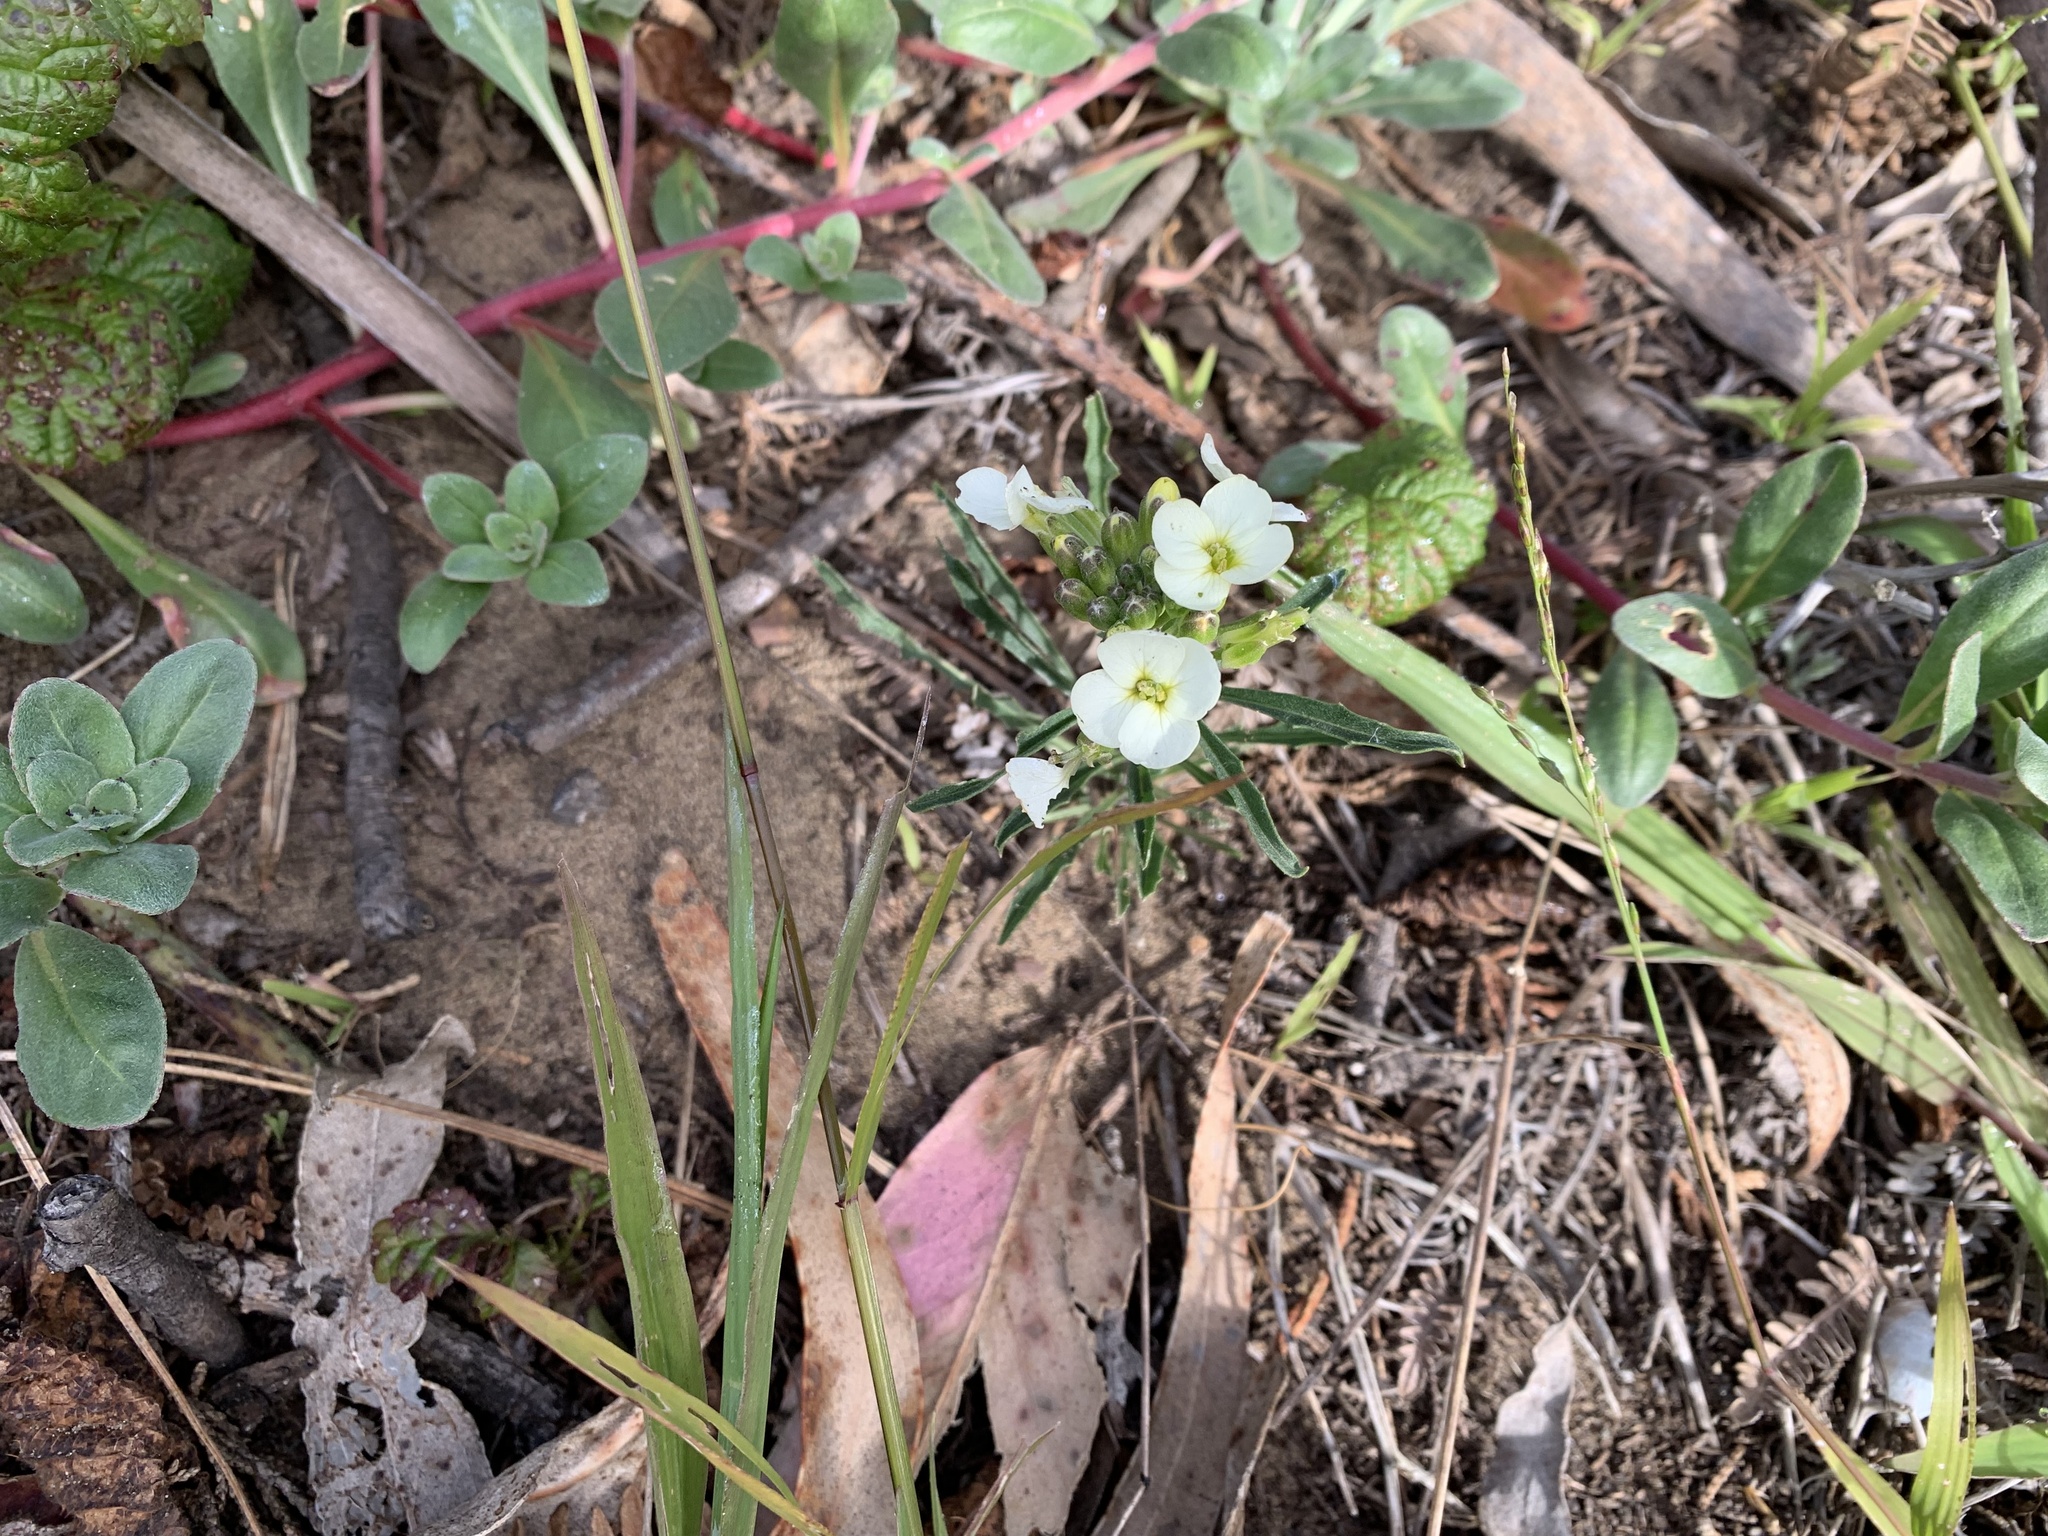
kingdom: Plantae
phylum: Tracheophyta
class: Magnoliopsida
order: Brassicales
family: Brassicaceae
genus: Erysimum
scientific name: Erysimum franciscanum
